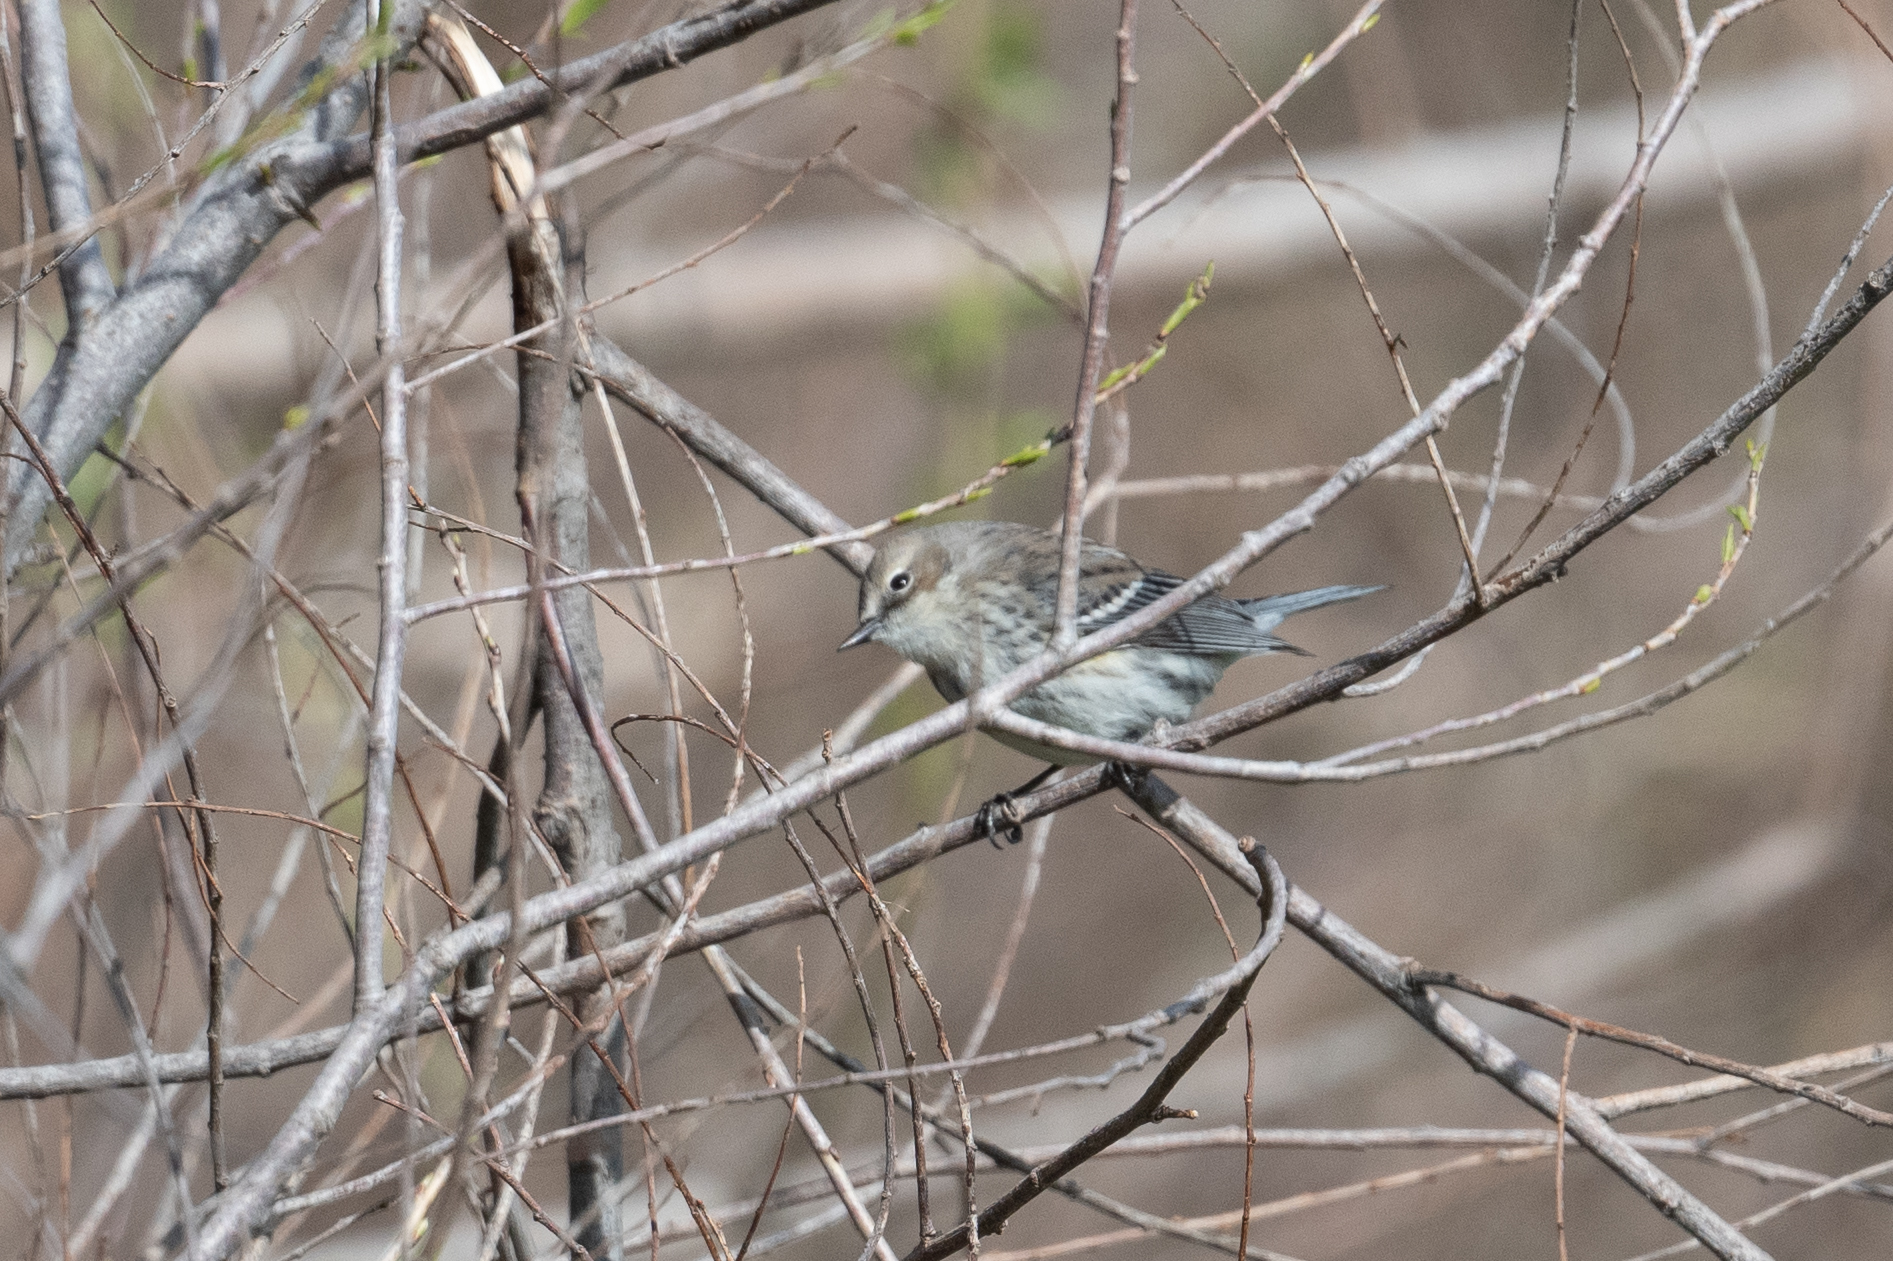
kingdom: Animalia
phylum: Chordata
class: Aves
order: Passeriformes
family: Parulidae
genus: Setophaga
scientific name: Setophaga coronata
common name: Myrtle warbler
